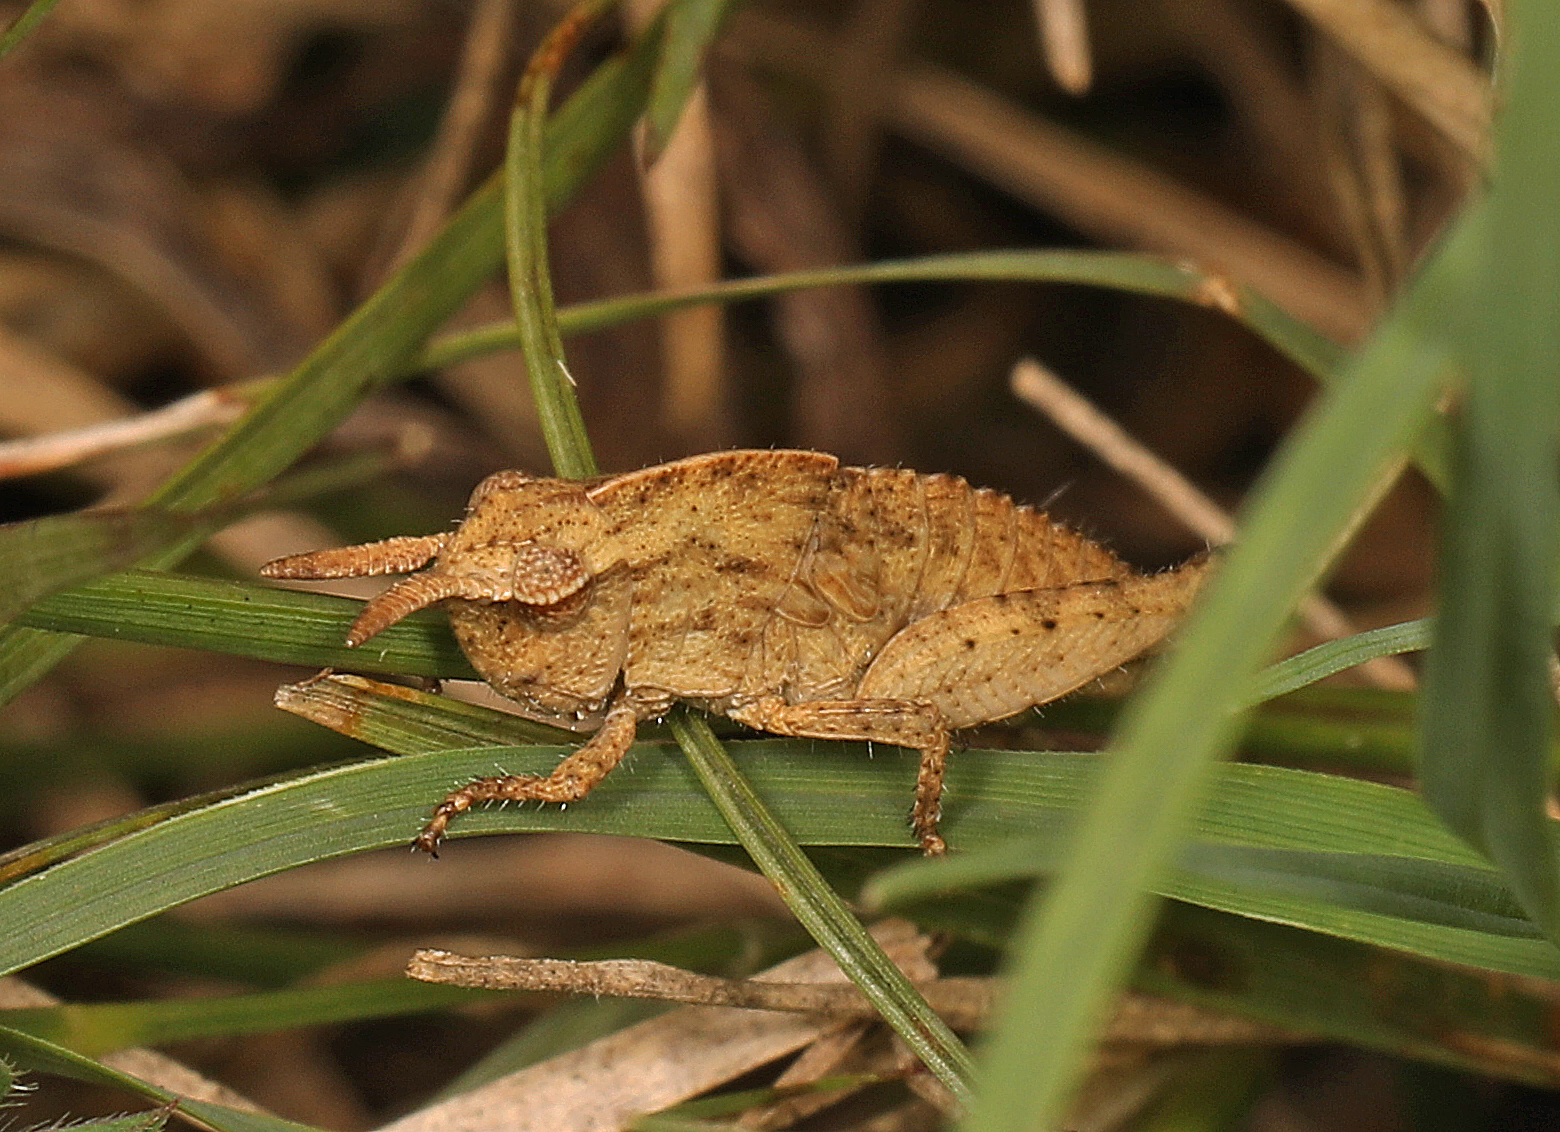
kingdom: Animalia
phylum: Arthropoda
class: Insecta
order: Orthoptera
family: Acrididae
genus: Chortophaga
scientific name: Chortophaga viridifasciata
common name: Green-striped grasshopper
